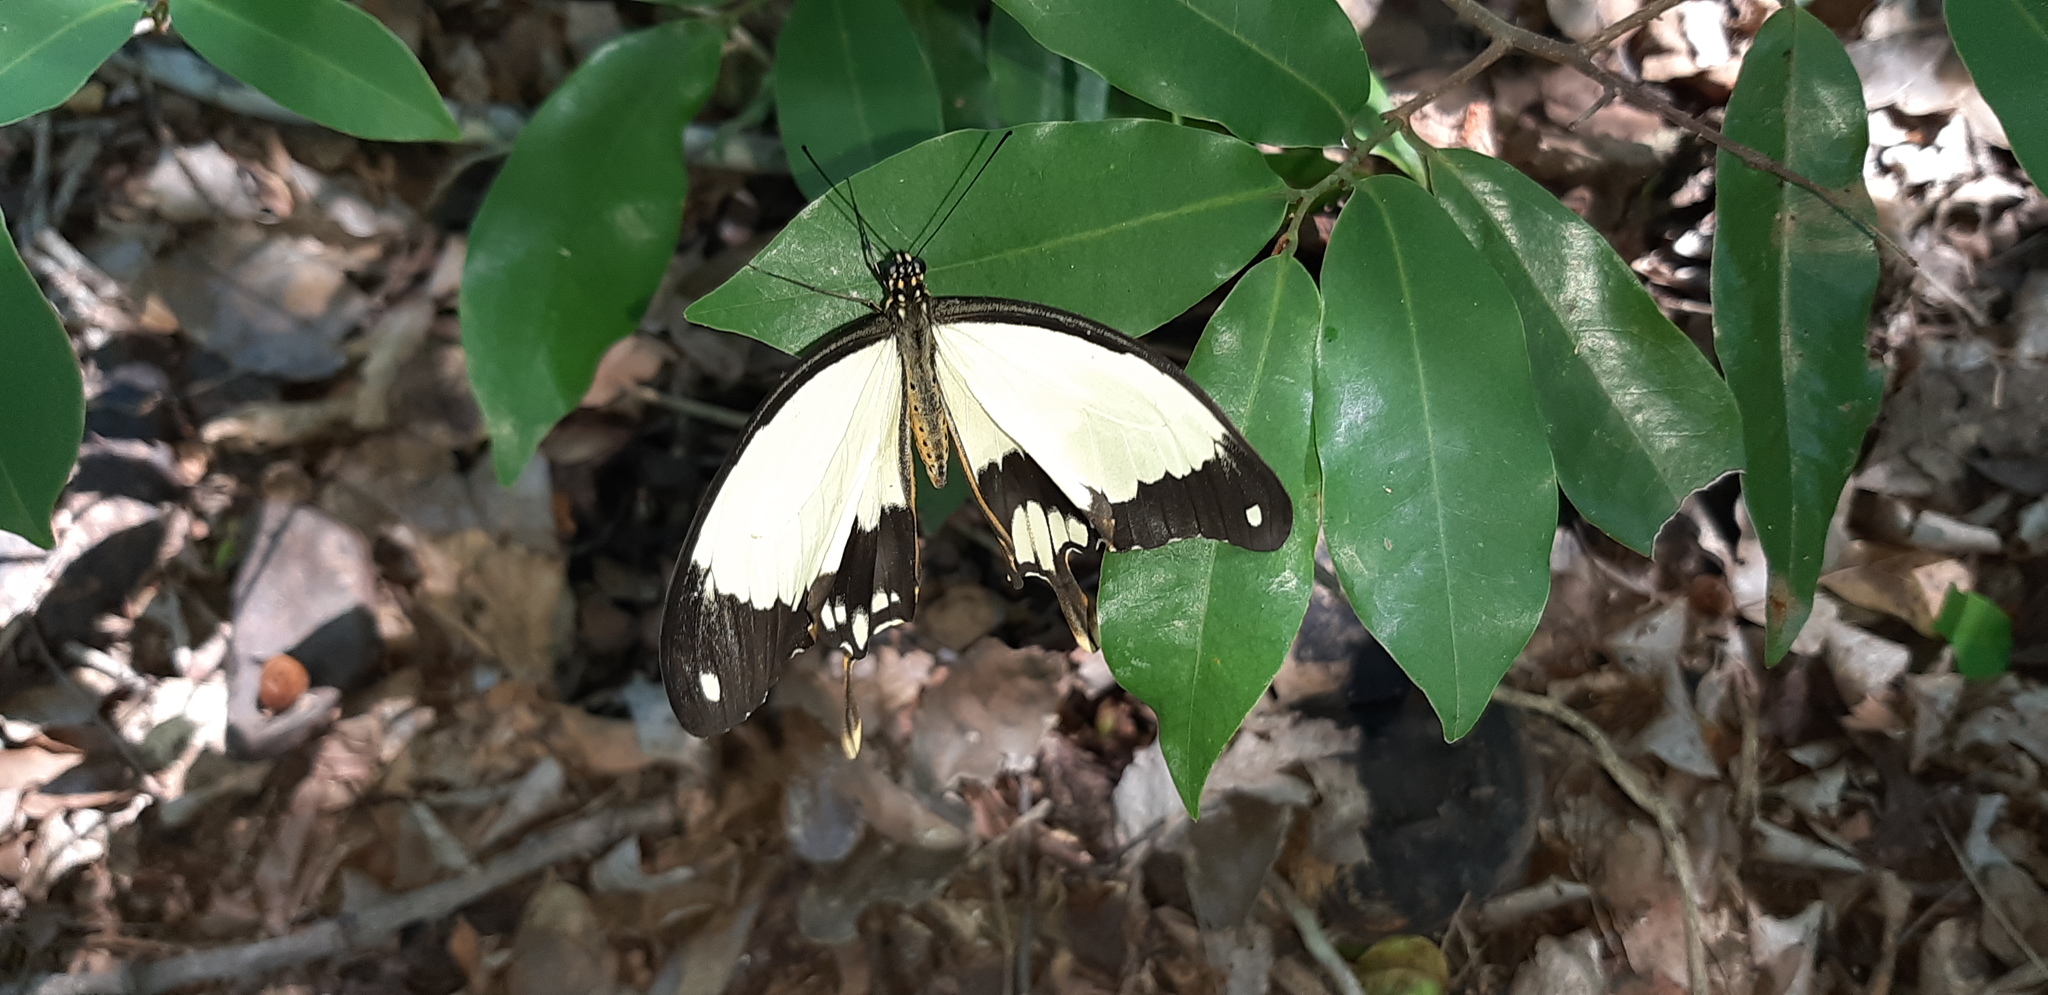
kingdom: Animalia
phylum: Arthropoda
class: Insecta
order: Lepidoptera
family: Papilionidae
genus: Papilio
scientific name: Papilio dardanus
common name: Flying handkerchief
